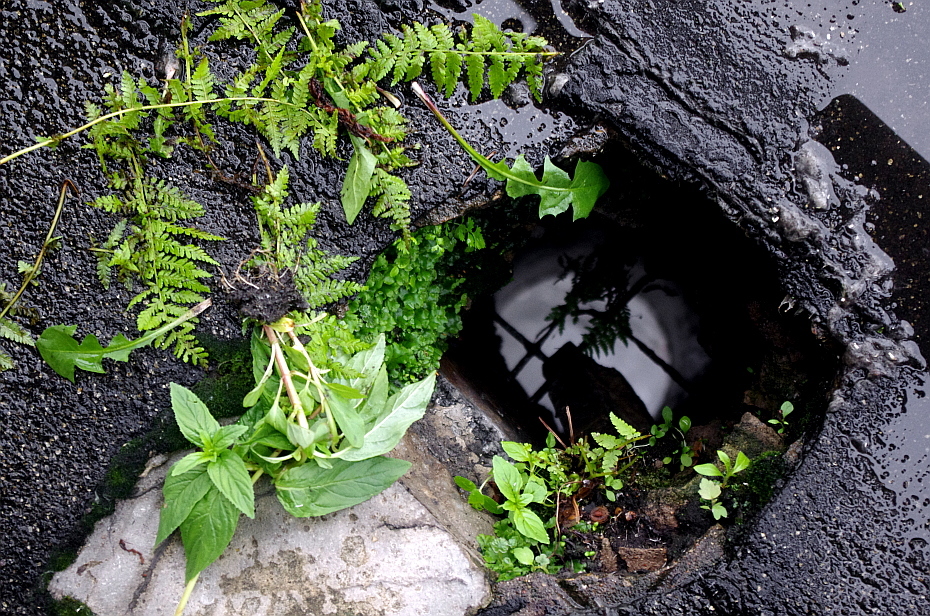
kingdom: Plantae
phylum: Tracheophyta
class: Magnoliopsida
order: Asterales
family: Asteraceae
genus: Taraxacum
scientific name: Taraxacum officinale
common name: Common dandelion
